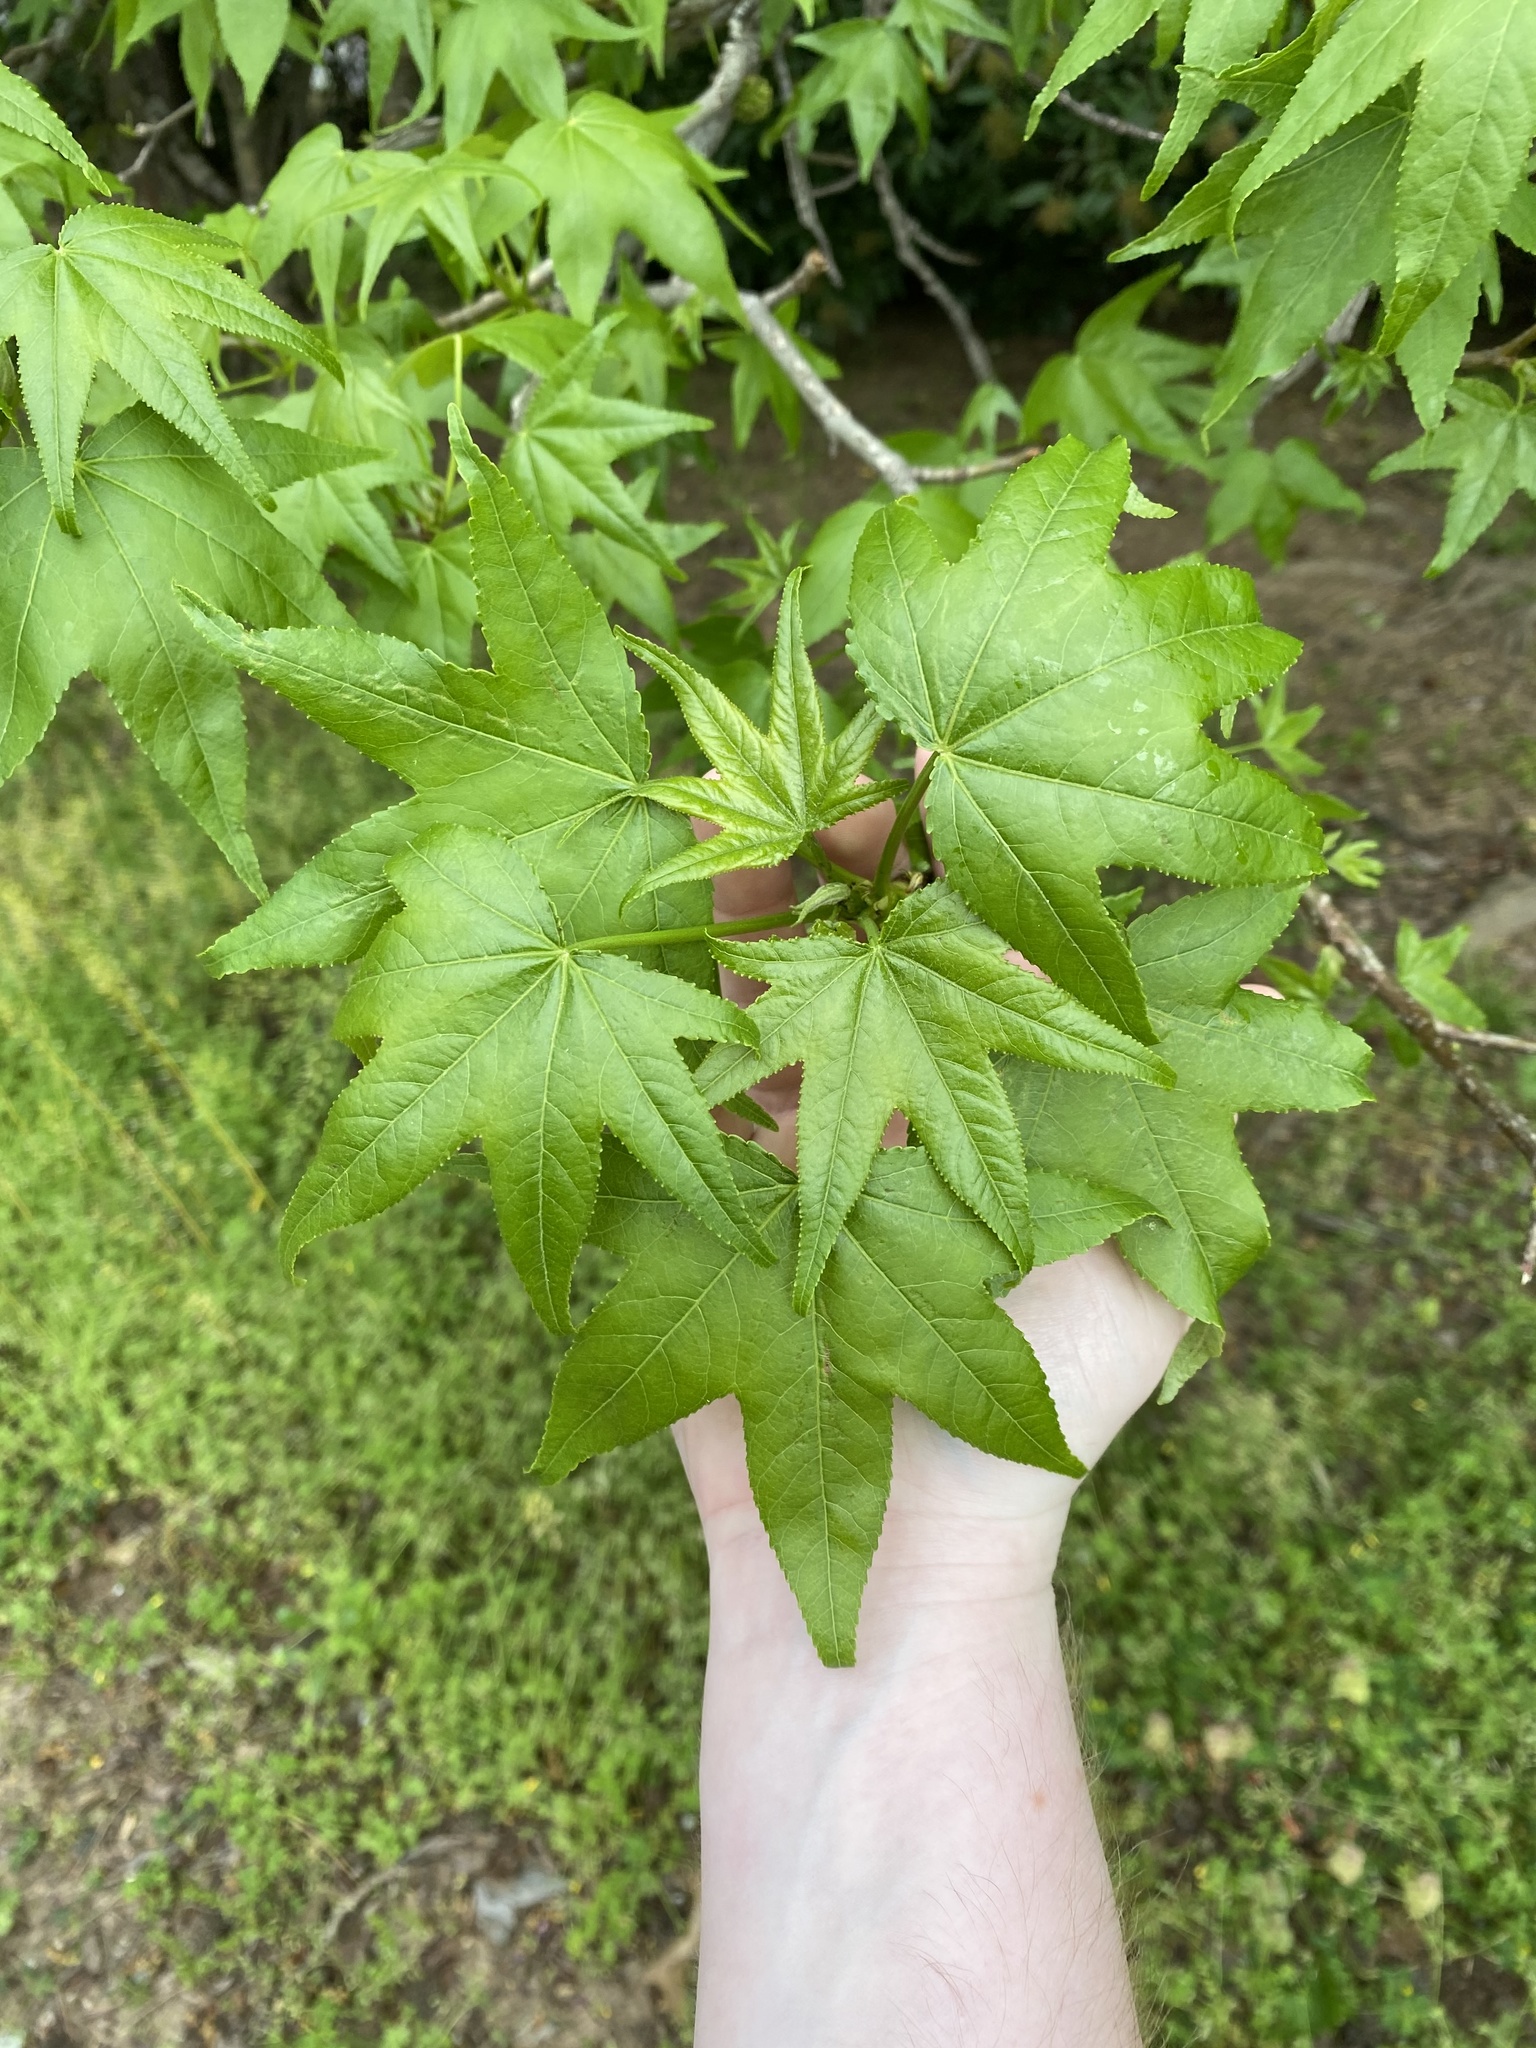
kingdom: Plantae
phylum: Tracheophyta
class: Magnoliopsida
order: Saxifragales
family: Altingiaceae
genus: Liquidambar
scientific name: Liquidambar styraciflua
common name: Sweet gum
